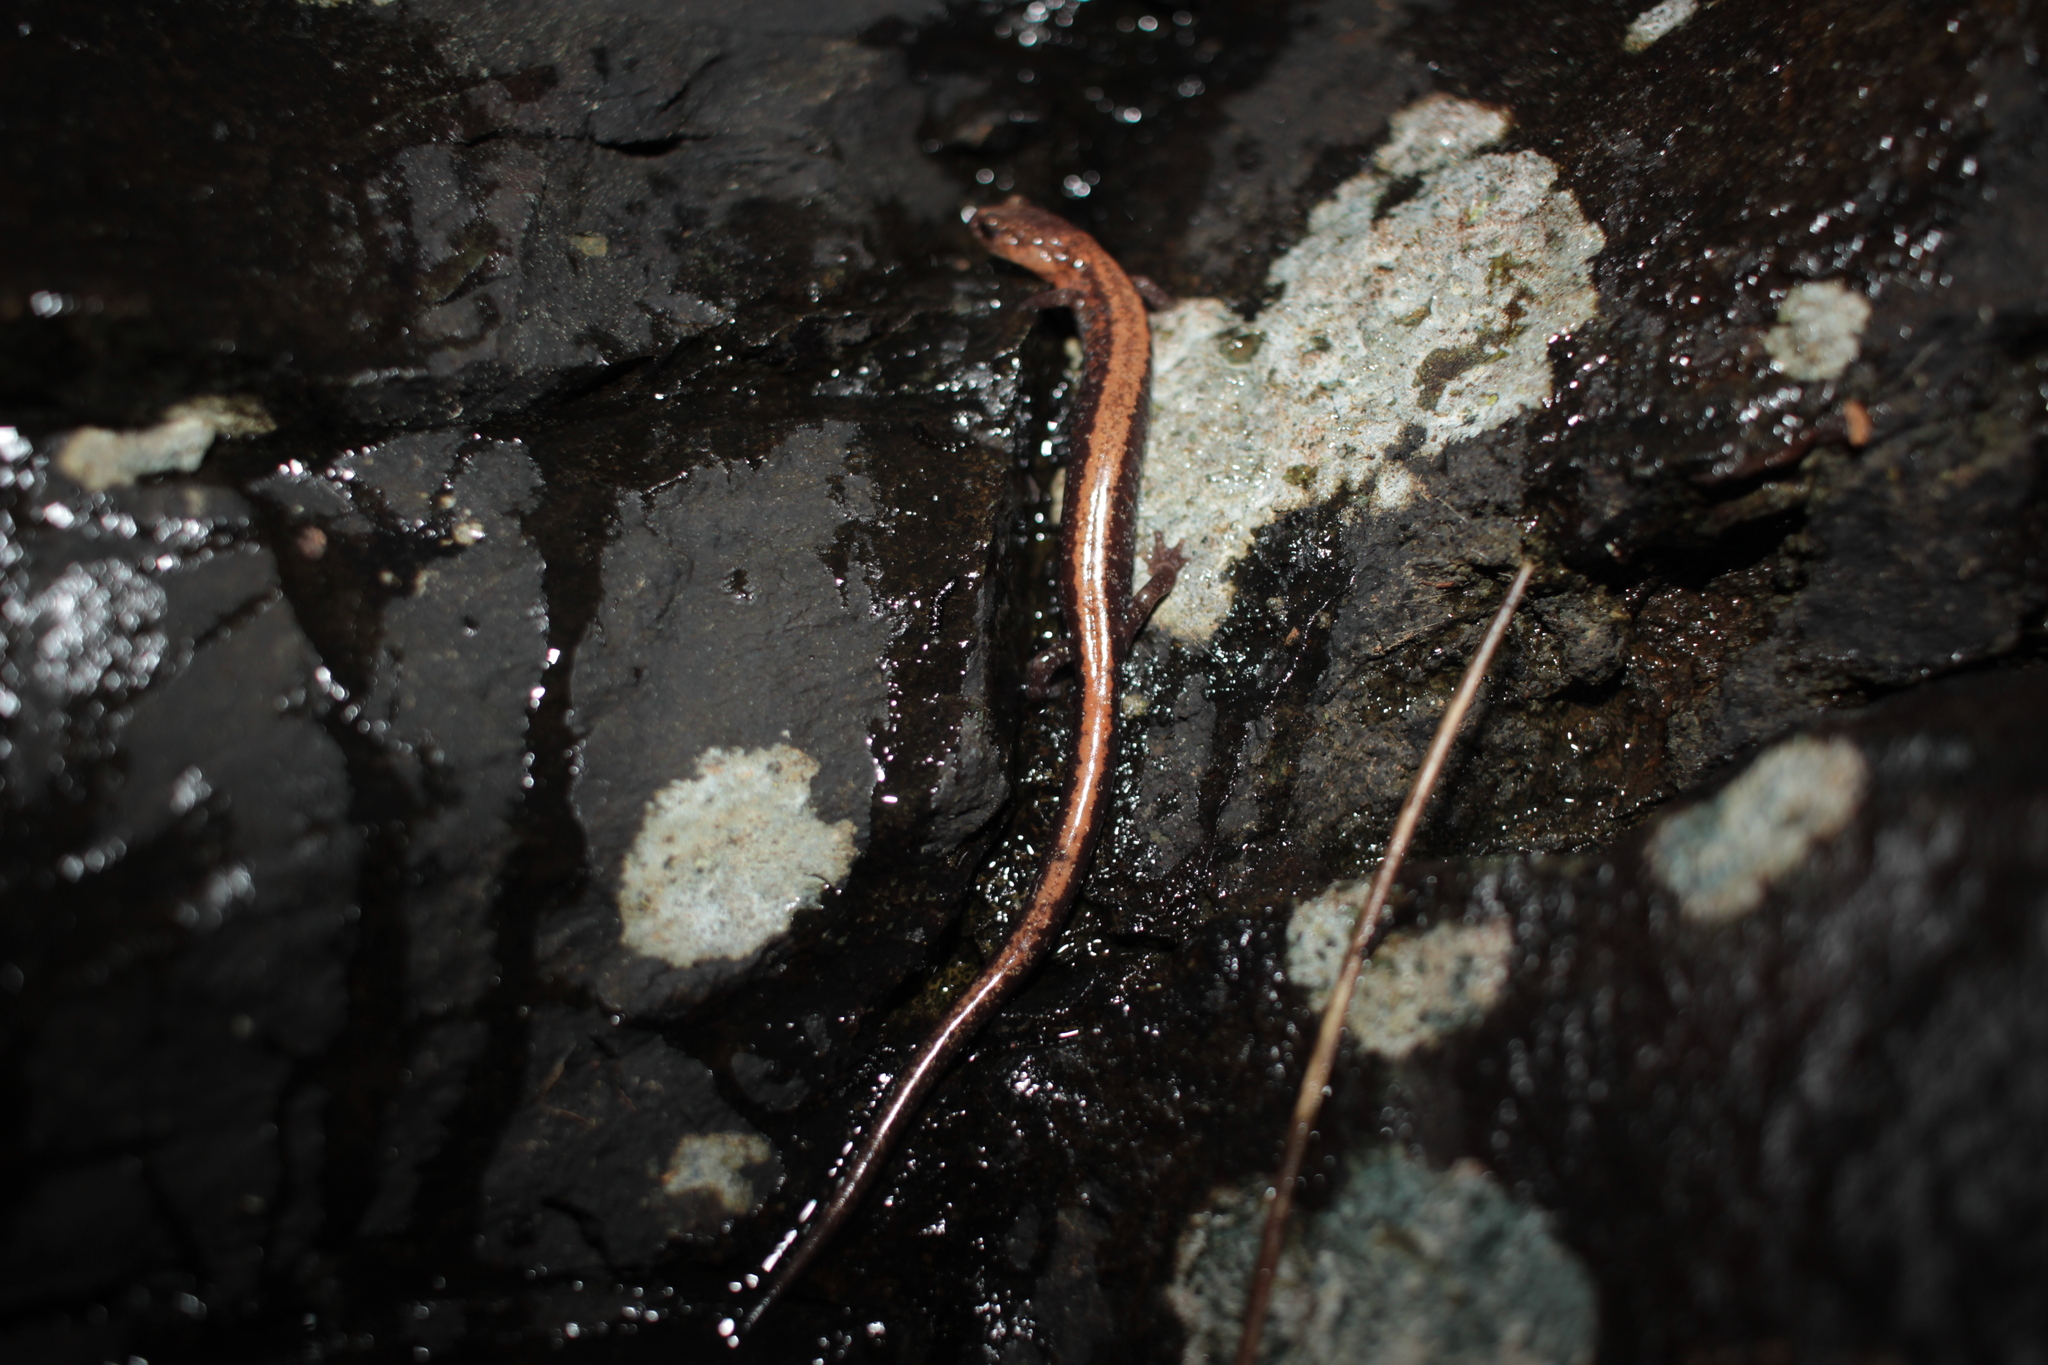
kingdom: Animalia
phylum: Chordata
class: Amphibia
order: Caudata
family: Plethodontidae
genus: Plethodon
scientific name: Plethodon cinereus
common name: Redback salamander
